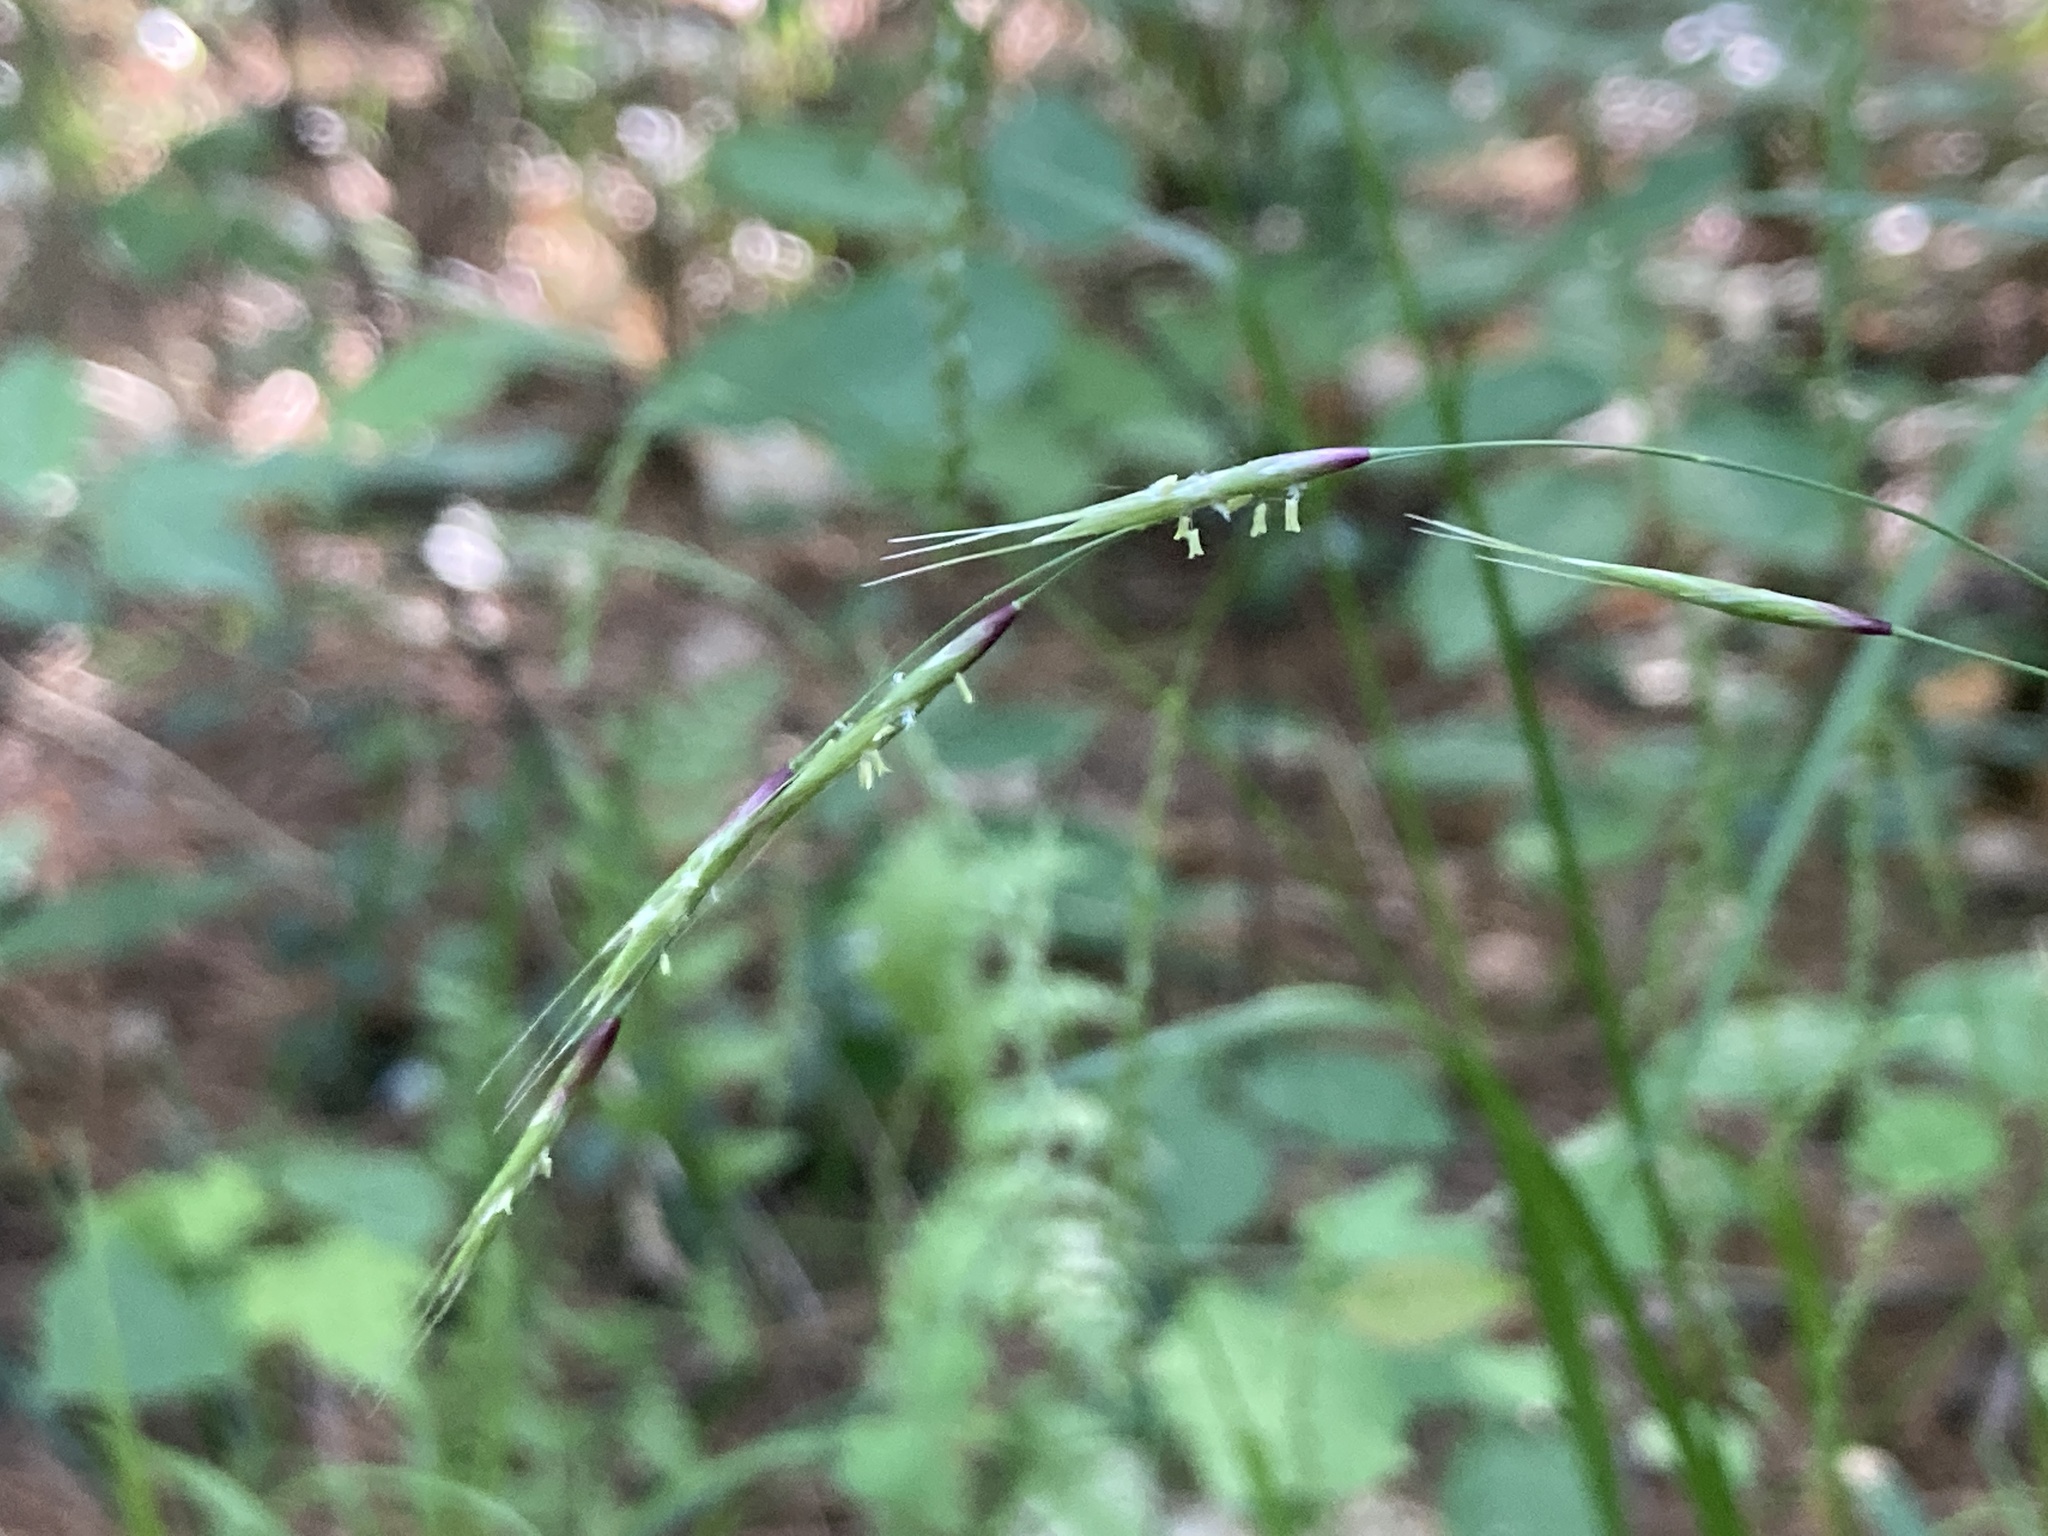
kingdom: Plantae
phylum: Tracheophyta
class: Liliopsida
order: Poales
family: Poaceae
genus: Schizachne
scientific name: Schizachne purpurascens
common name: False melic
